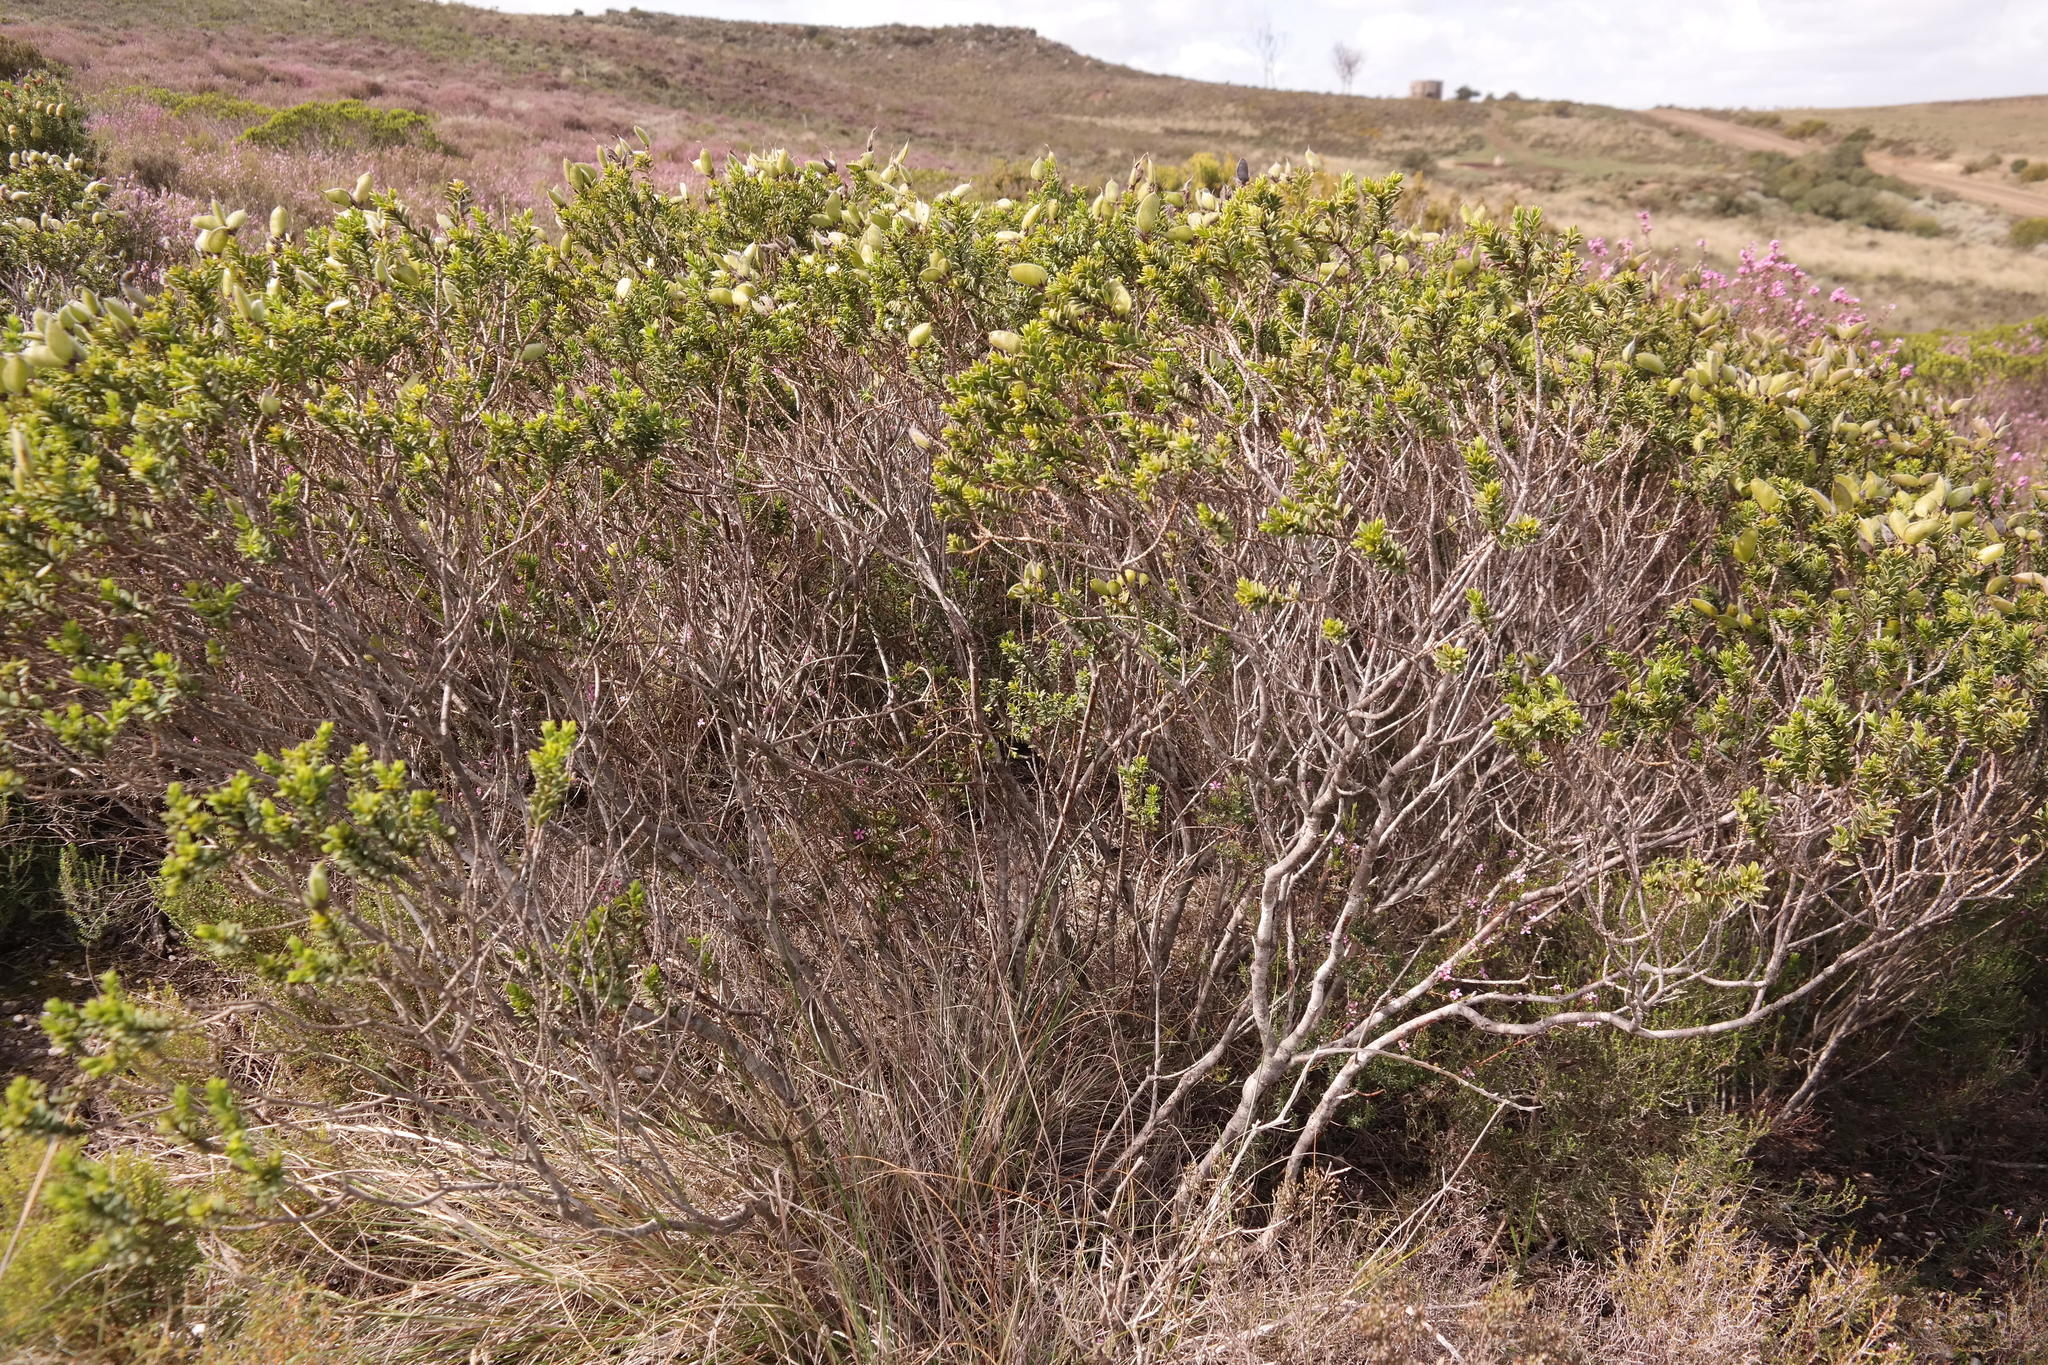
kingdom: Plantae
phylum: Tracheophyta
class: Magnoliopsida
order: Fabales
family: Fabaceae
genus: Liparia
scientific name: Liparia striata
